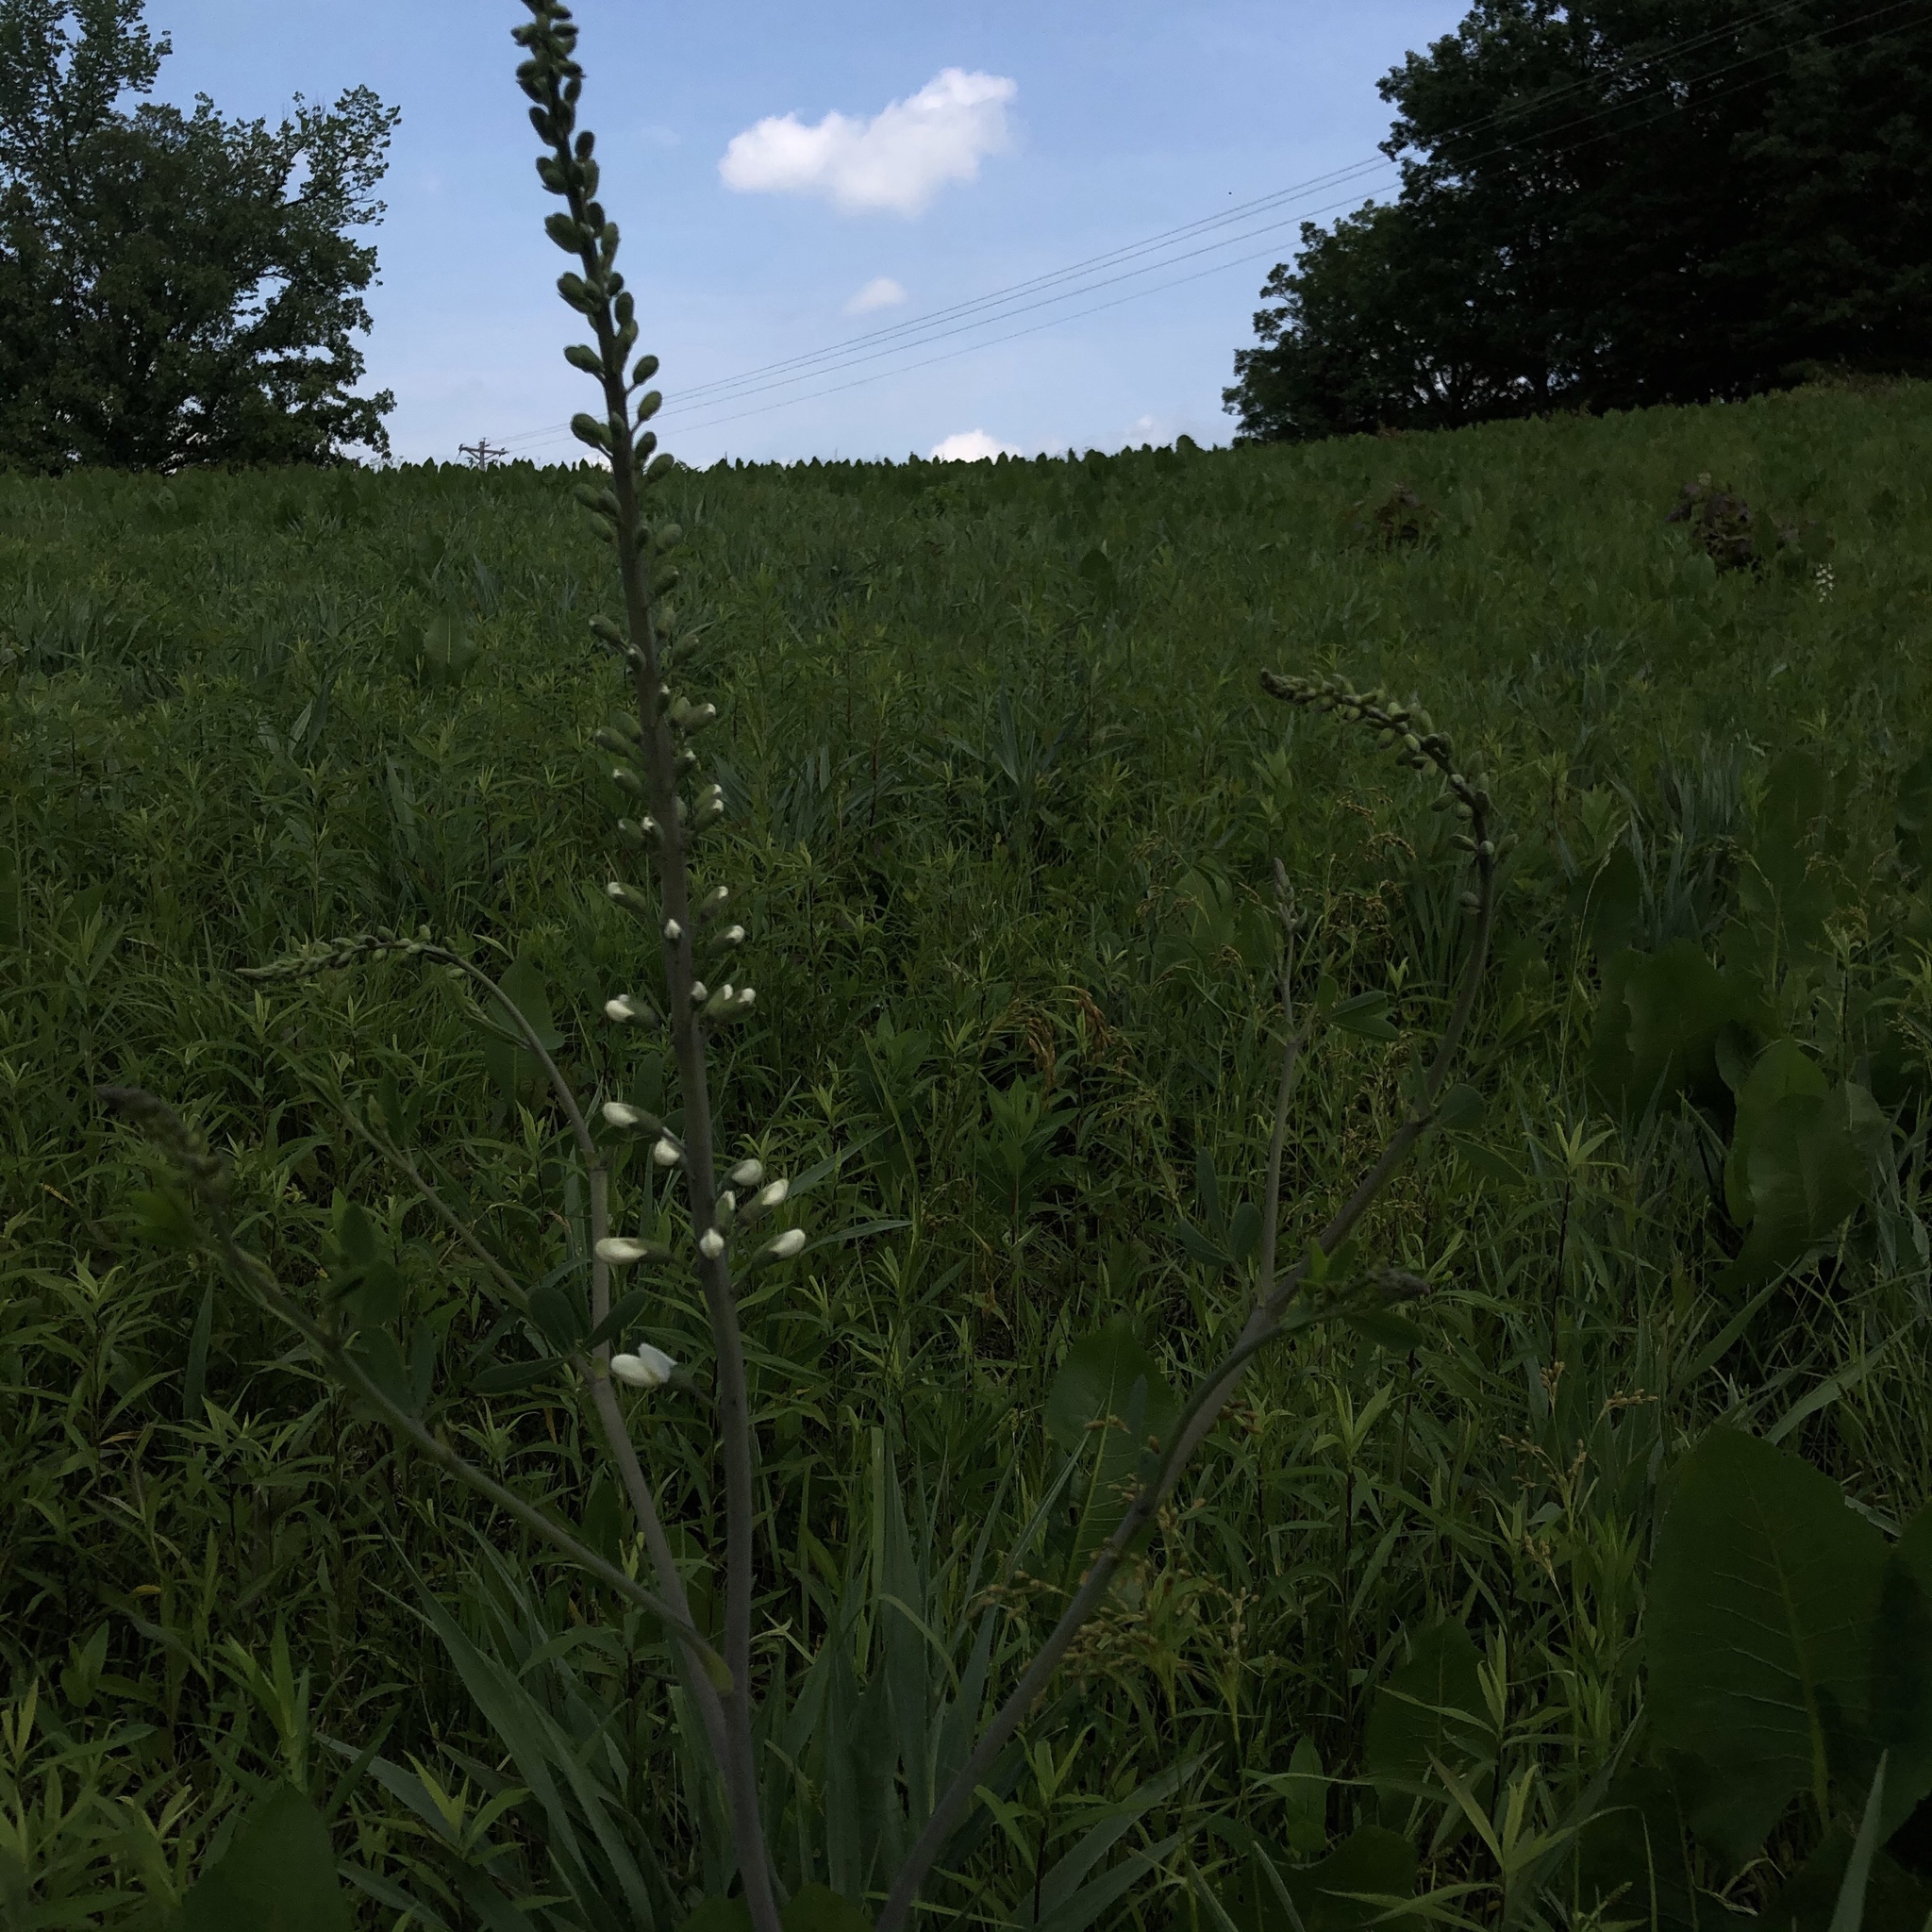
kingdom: Plantae
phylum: Tracheophyta
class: Magnoliopsida
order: Fabales
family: Fabaceae
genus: Baptisia
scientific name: Baptisia alba
